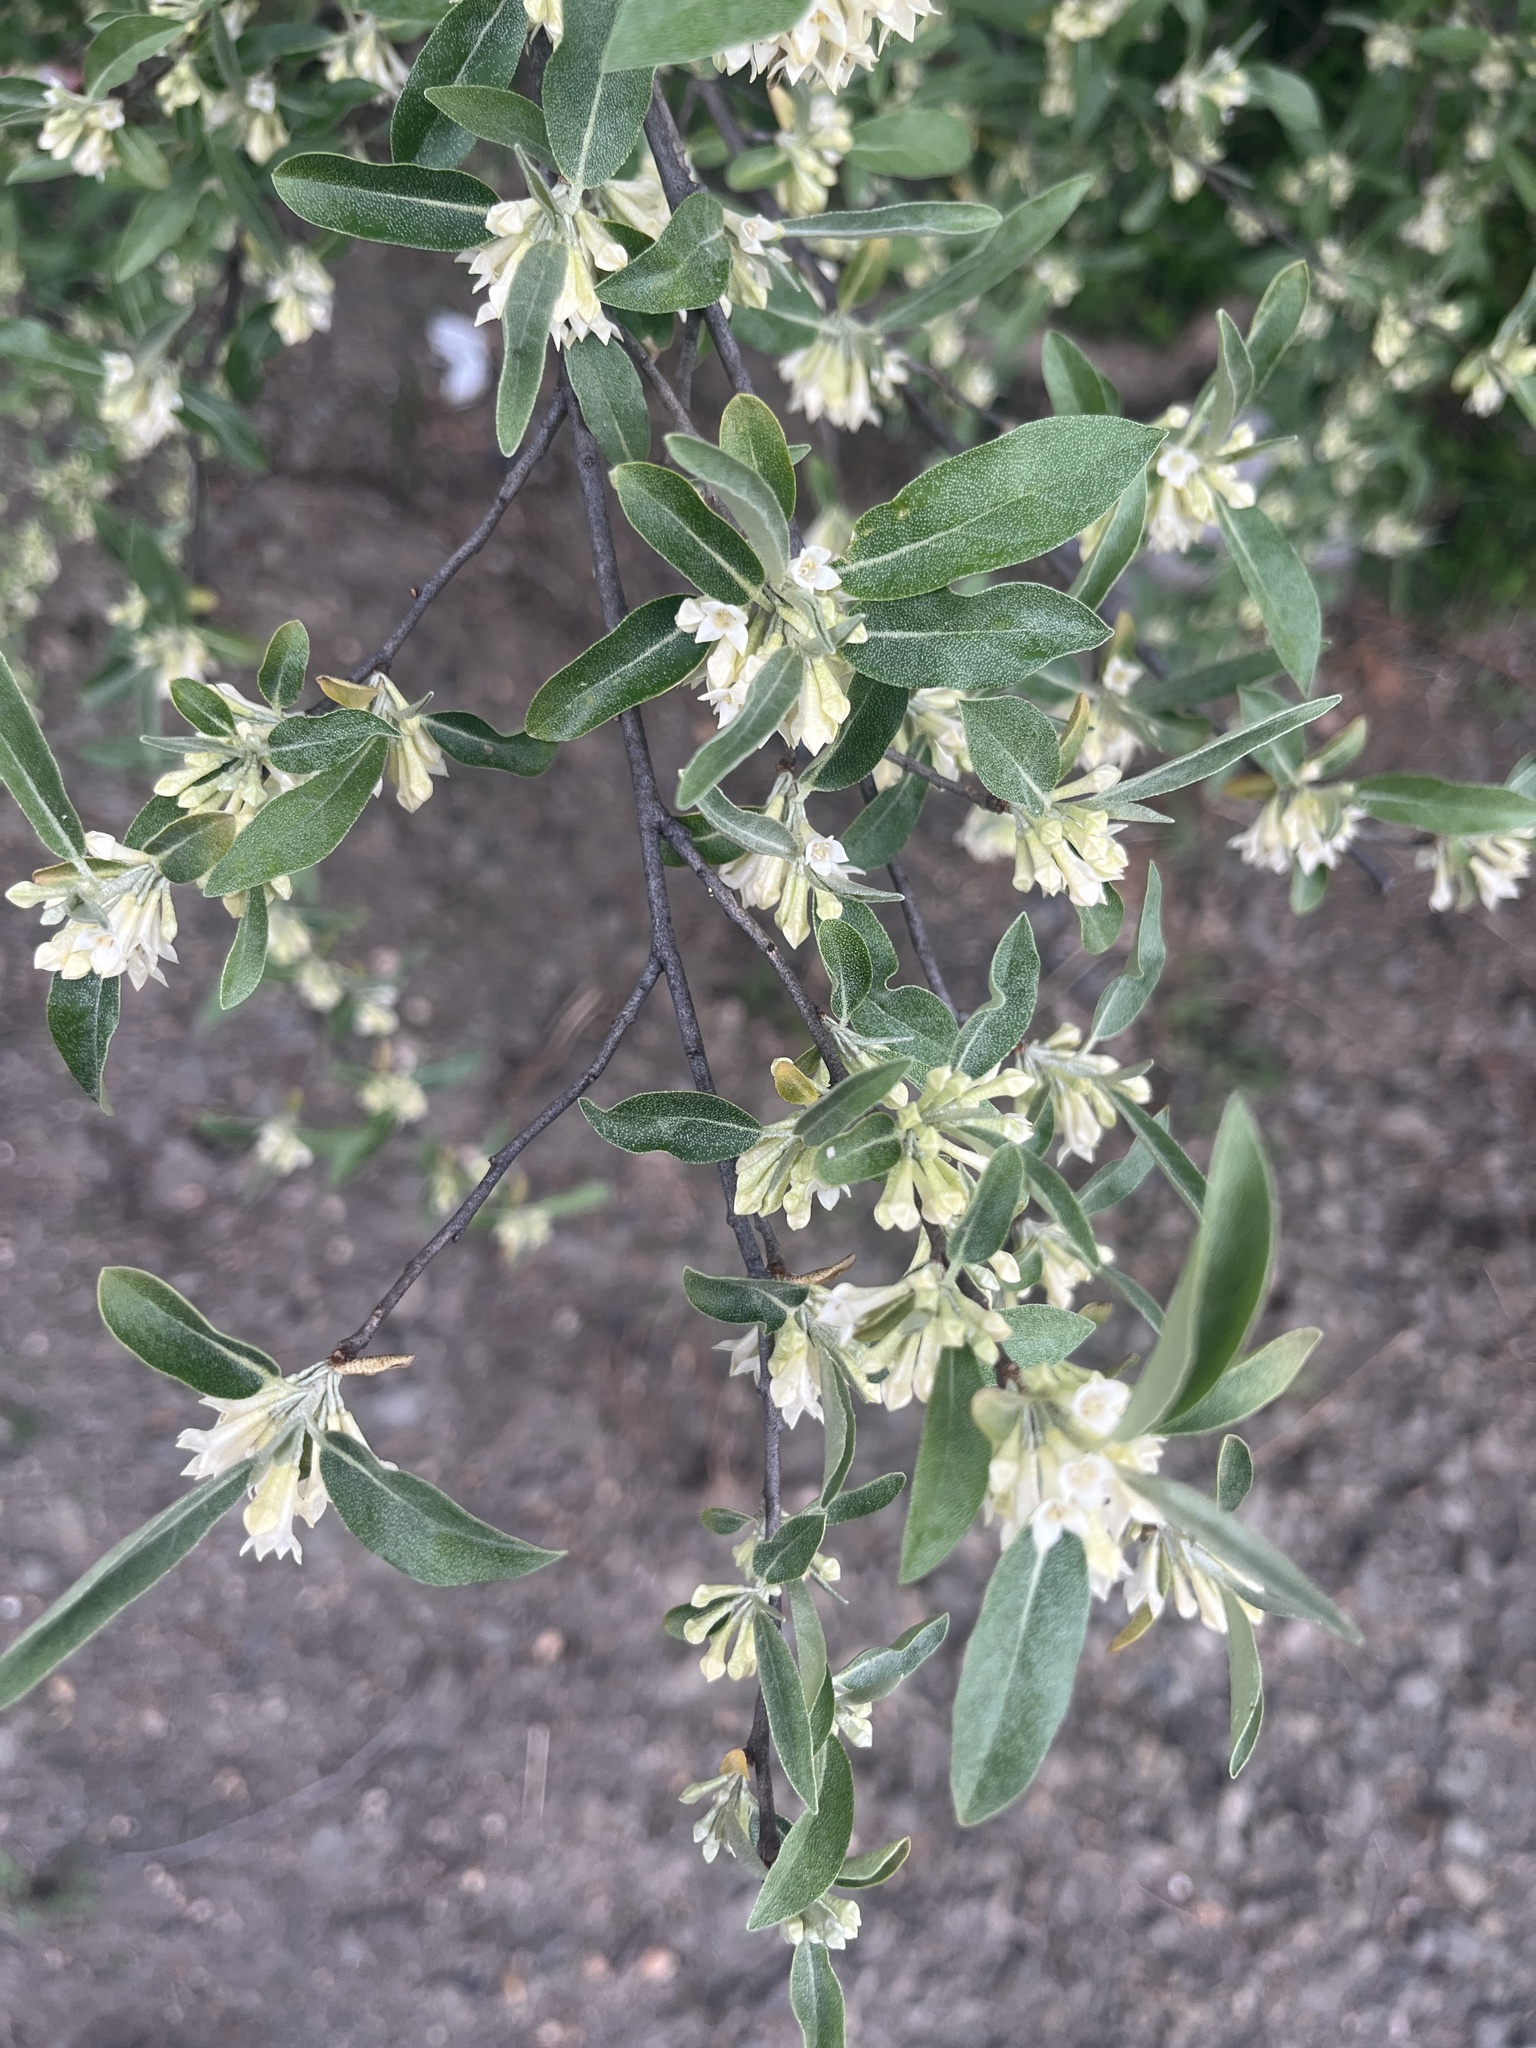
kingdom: Plantae
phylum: Tracheophyta
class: Magnoliopsida
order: Rosales
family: Elaeagnaceae
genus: Elaeagnus
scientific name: Elaeagnus umbellata
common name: Autumn olive
